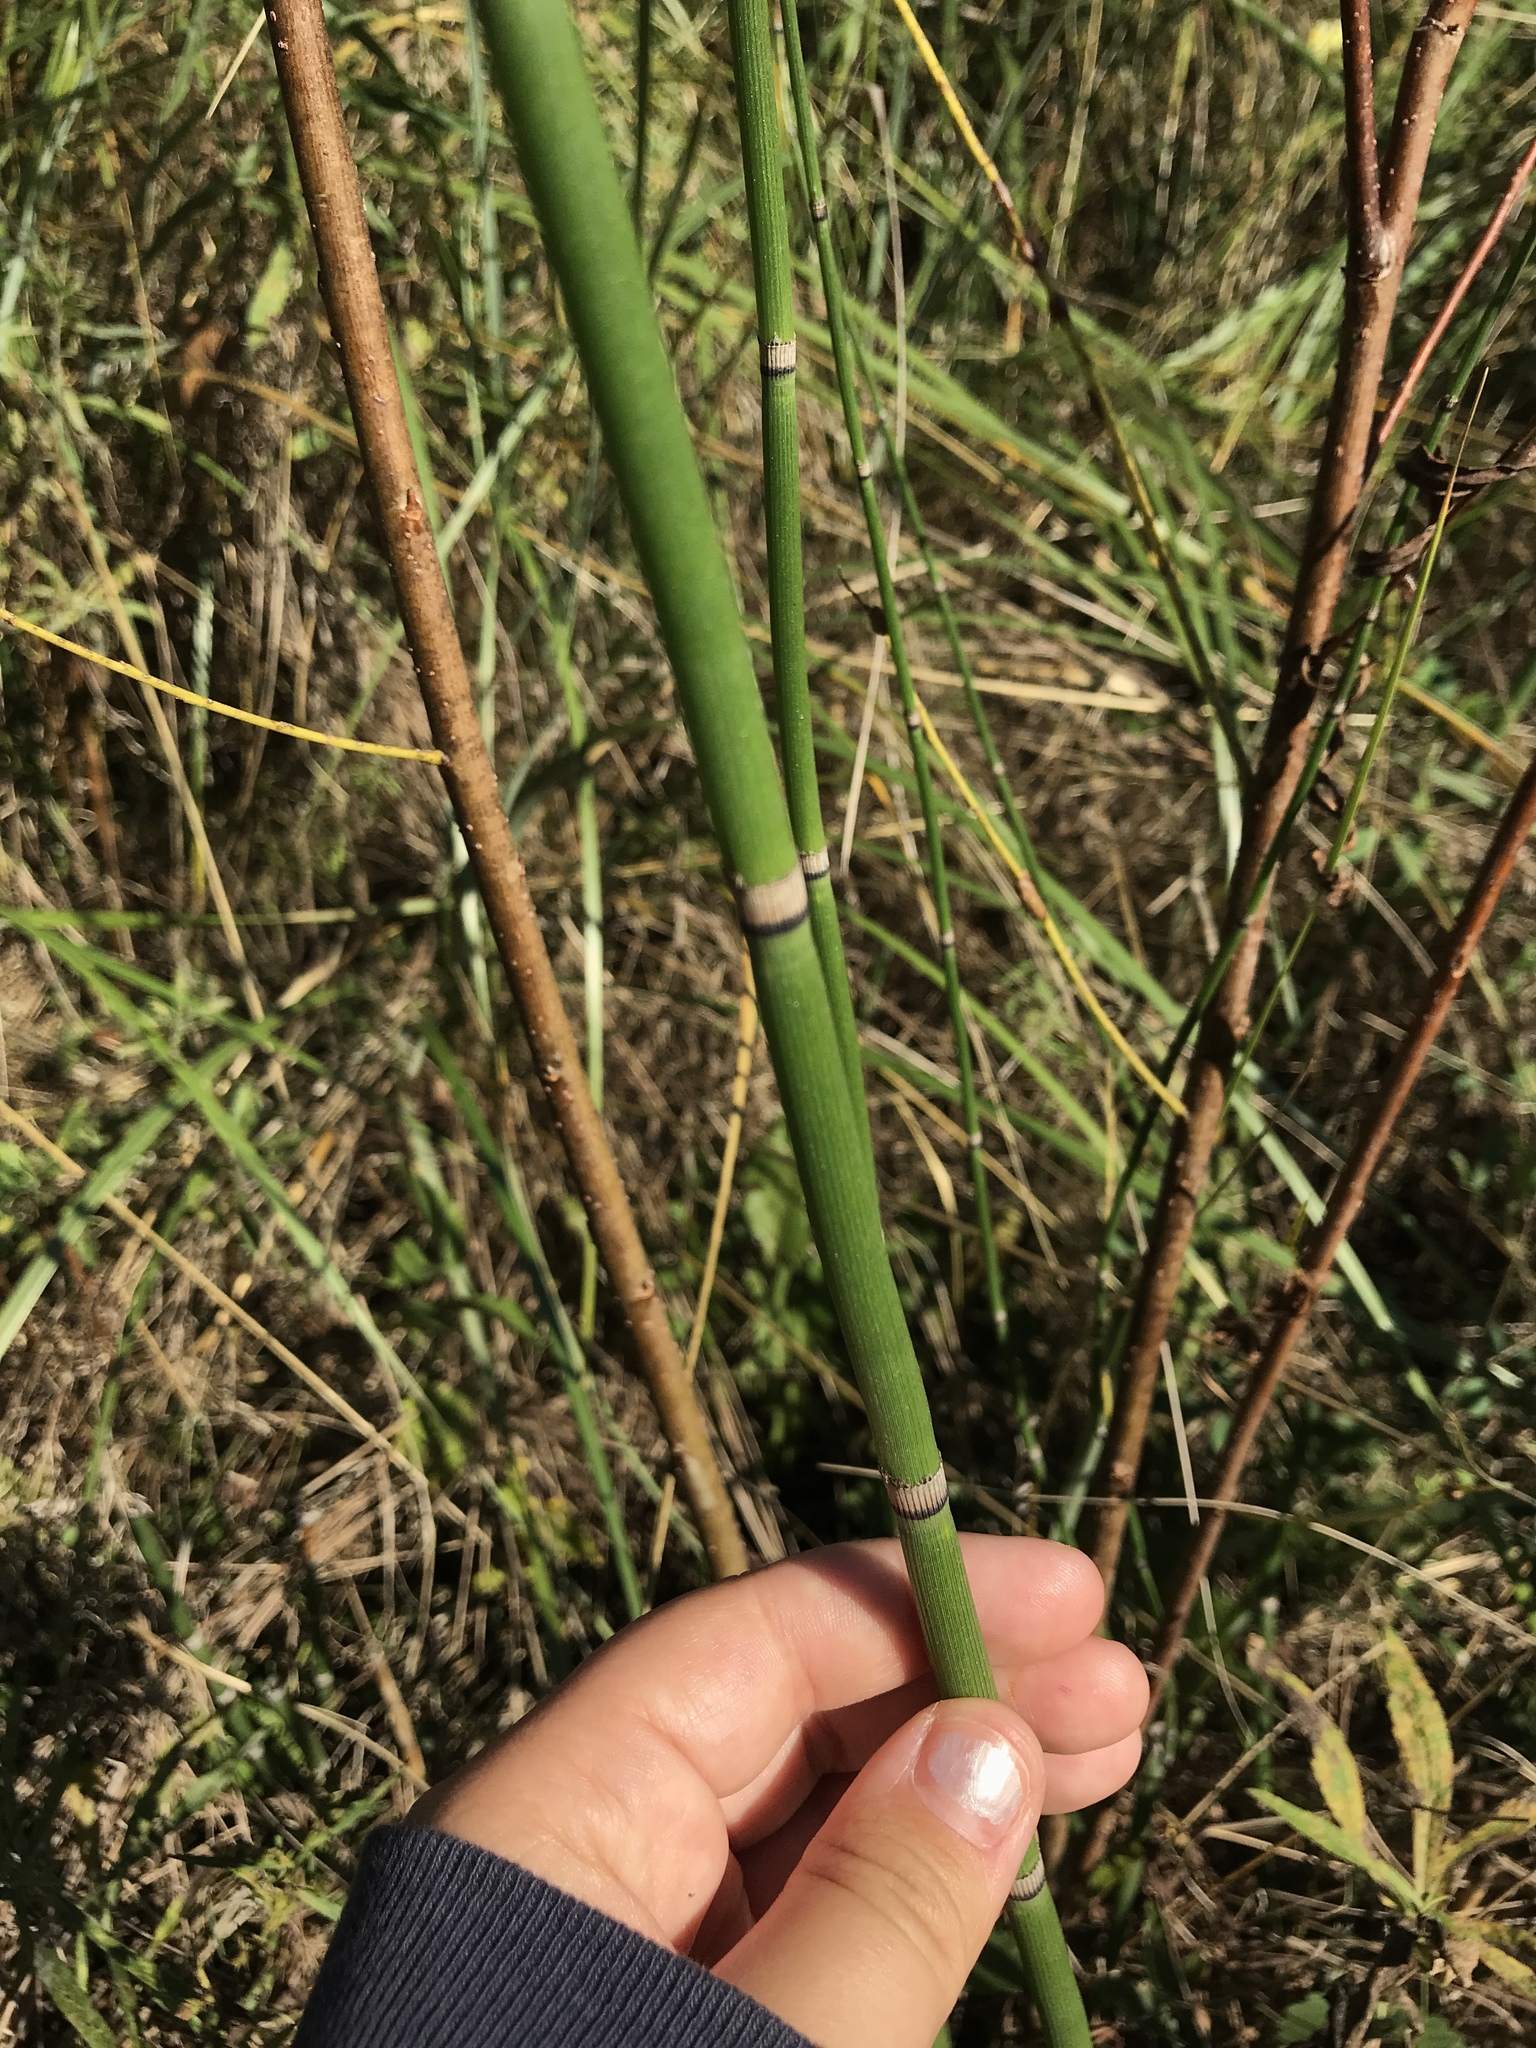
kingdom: Plantae
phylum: Tracheophyta
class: Polypodiopsida
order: Equisetales
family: Equisetaceae
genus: Equisetum
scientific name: Equisetum hyemale
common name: Rough horsetail
